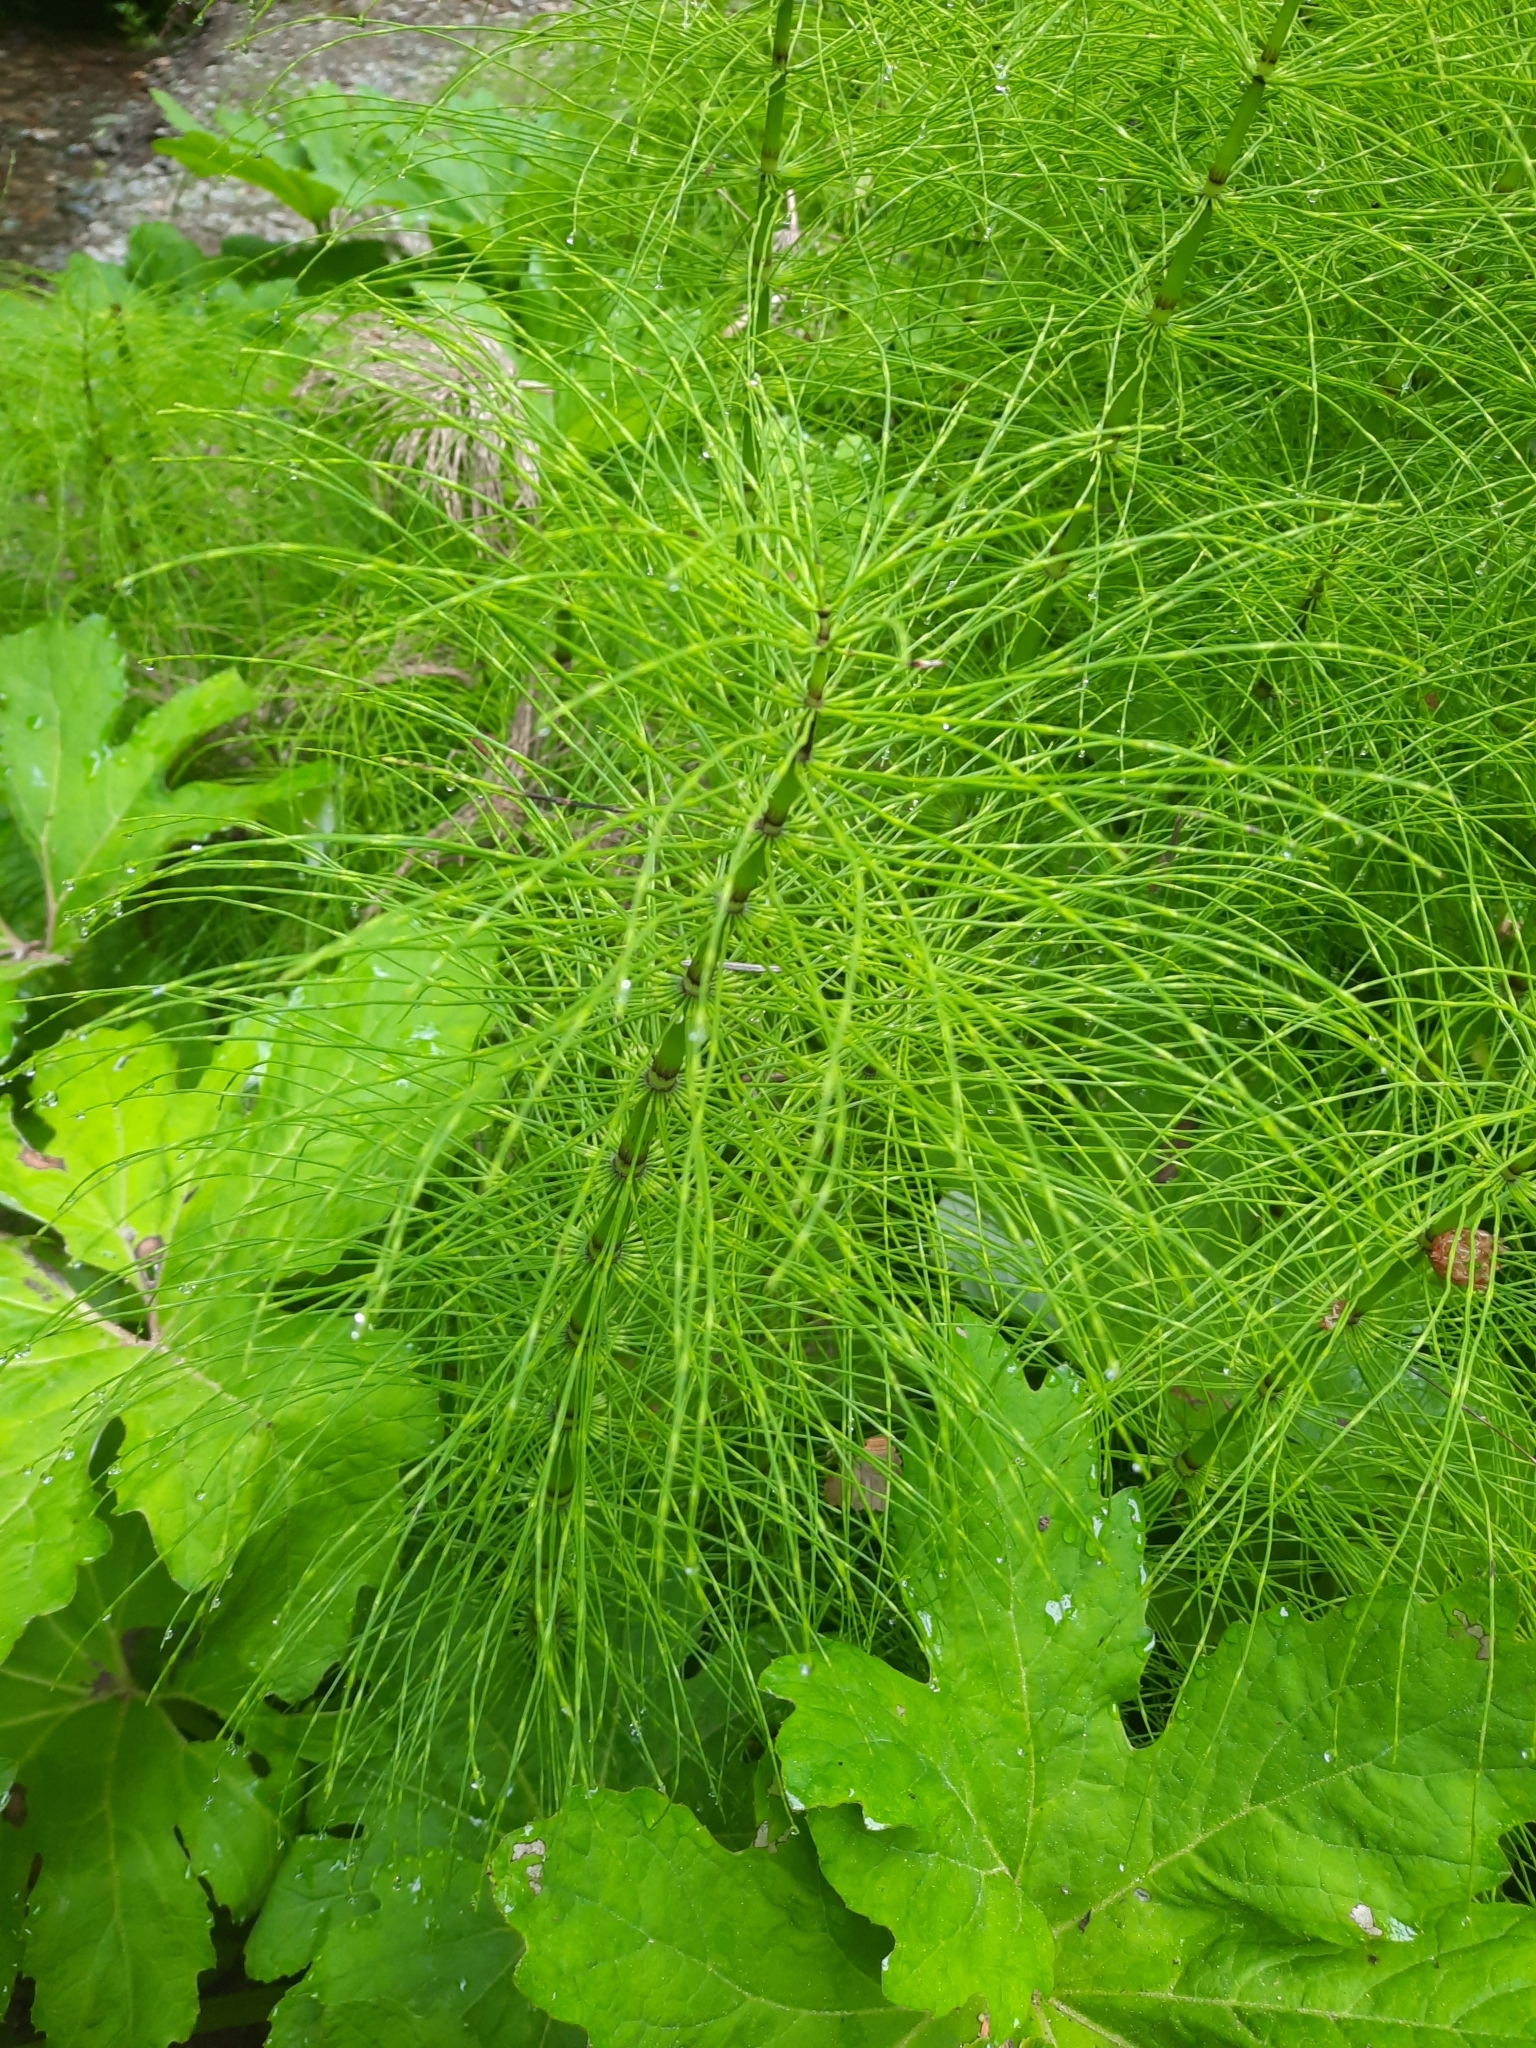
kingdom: Plantae
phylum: Tracheophyta
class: Polypodiopsida
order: Equisetales
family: Equisetaceae
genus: Equisetum
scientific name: Equisetum telmateia
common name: Great horsetail
